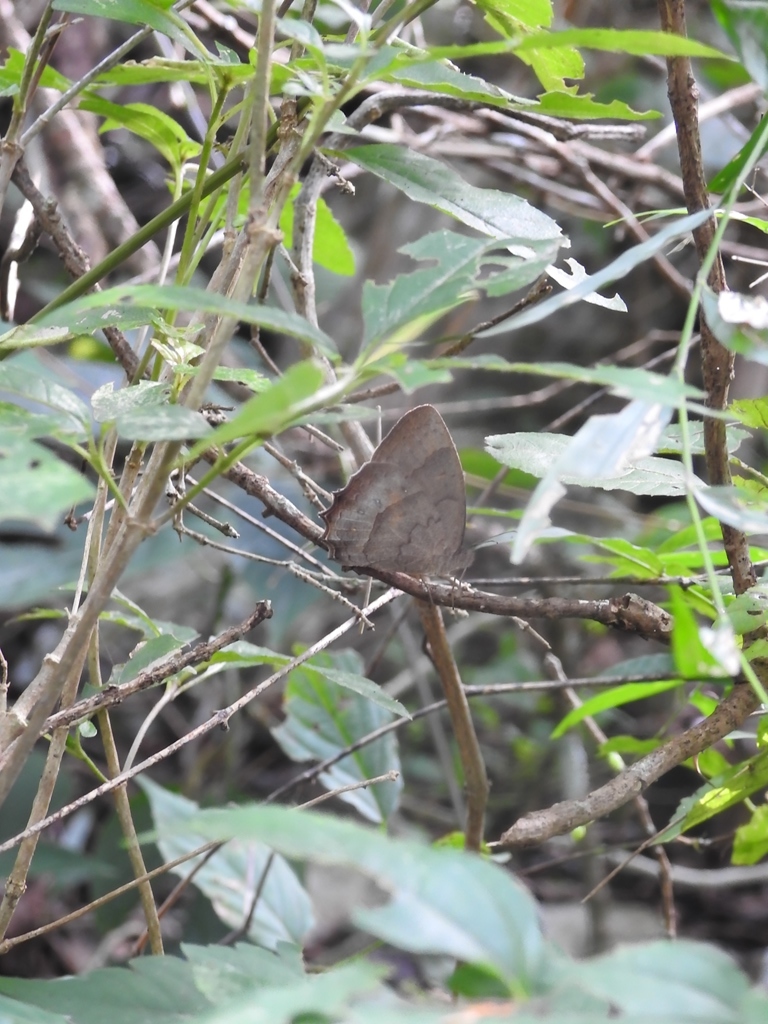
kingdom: Animalia
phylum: Arthropoda
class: Insecta
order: Lepidoptera
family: Nymphalidae
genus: Taygetis
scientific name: Taygetis weymeri
